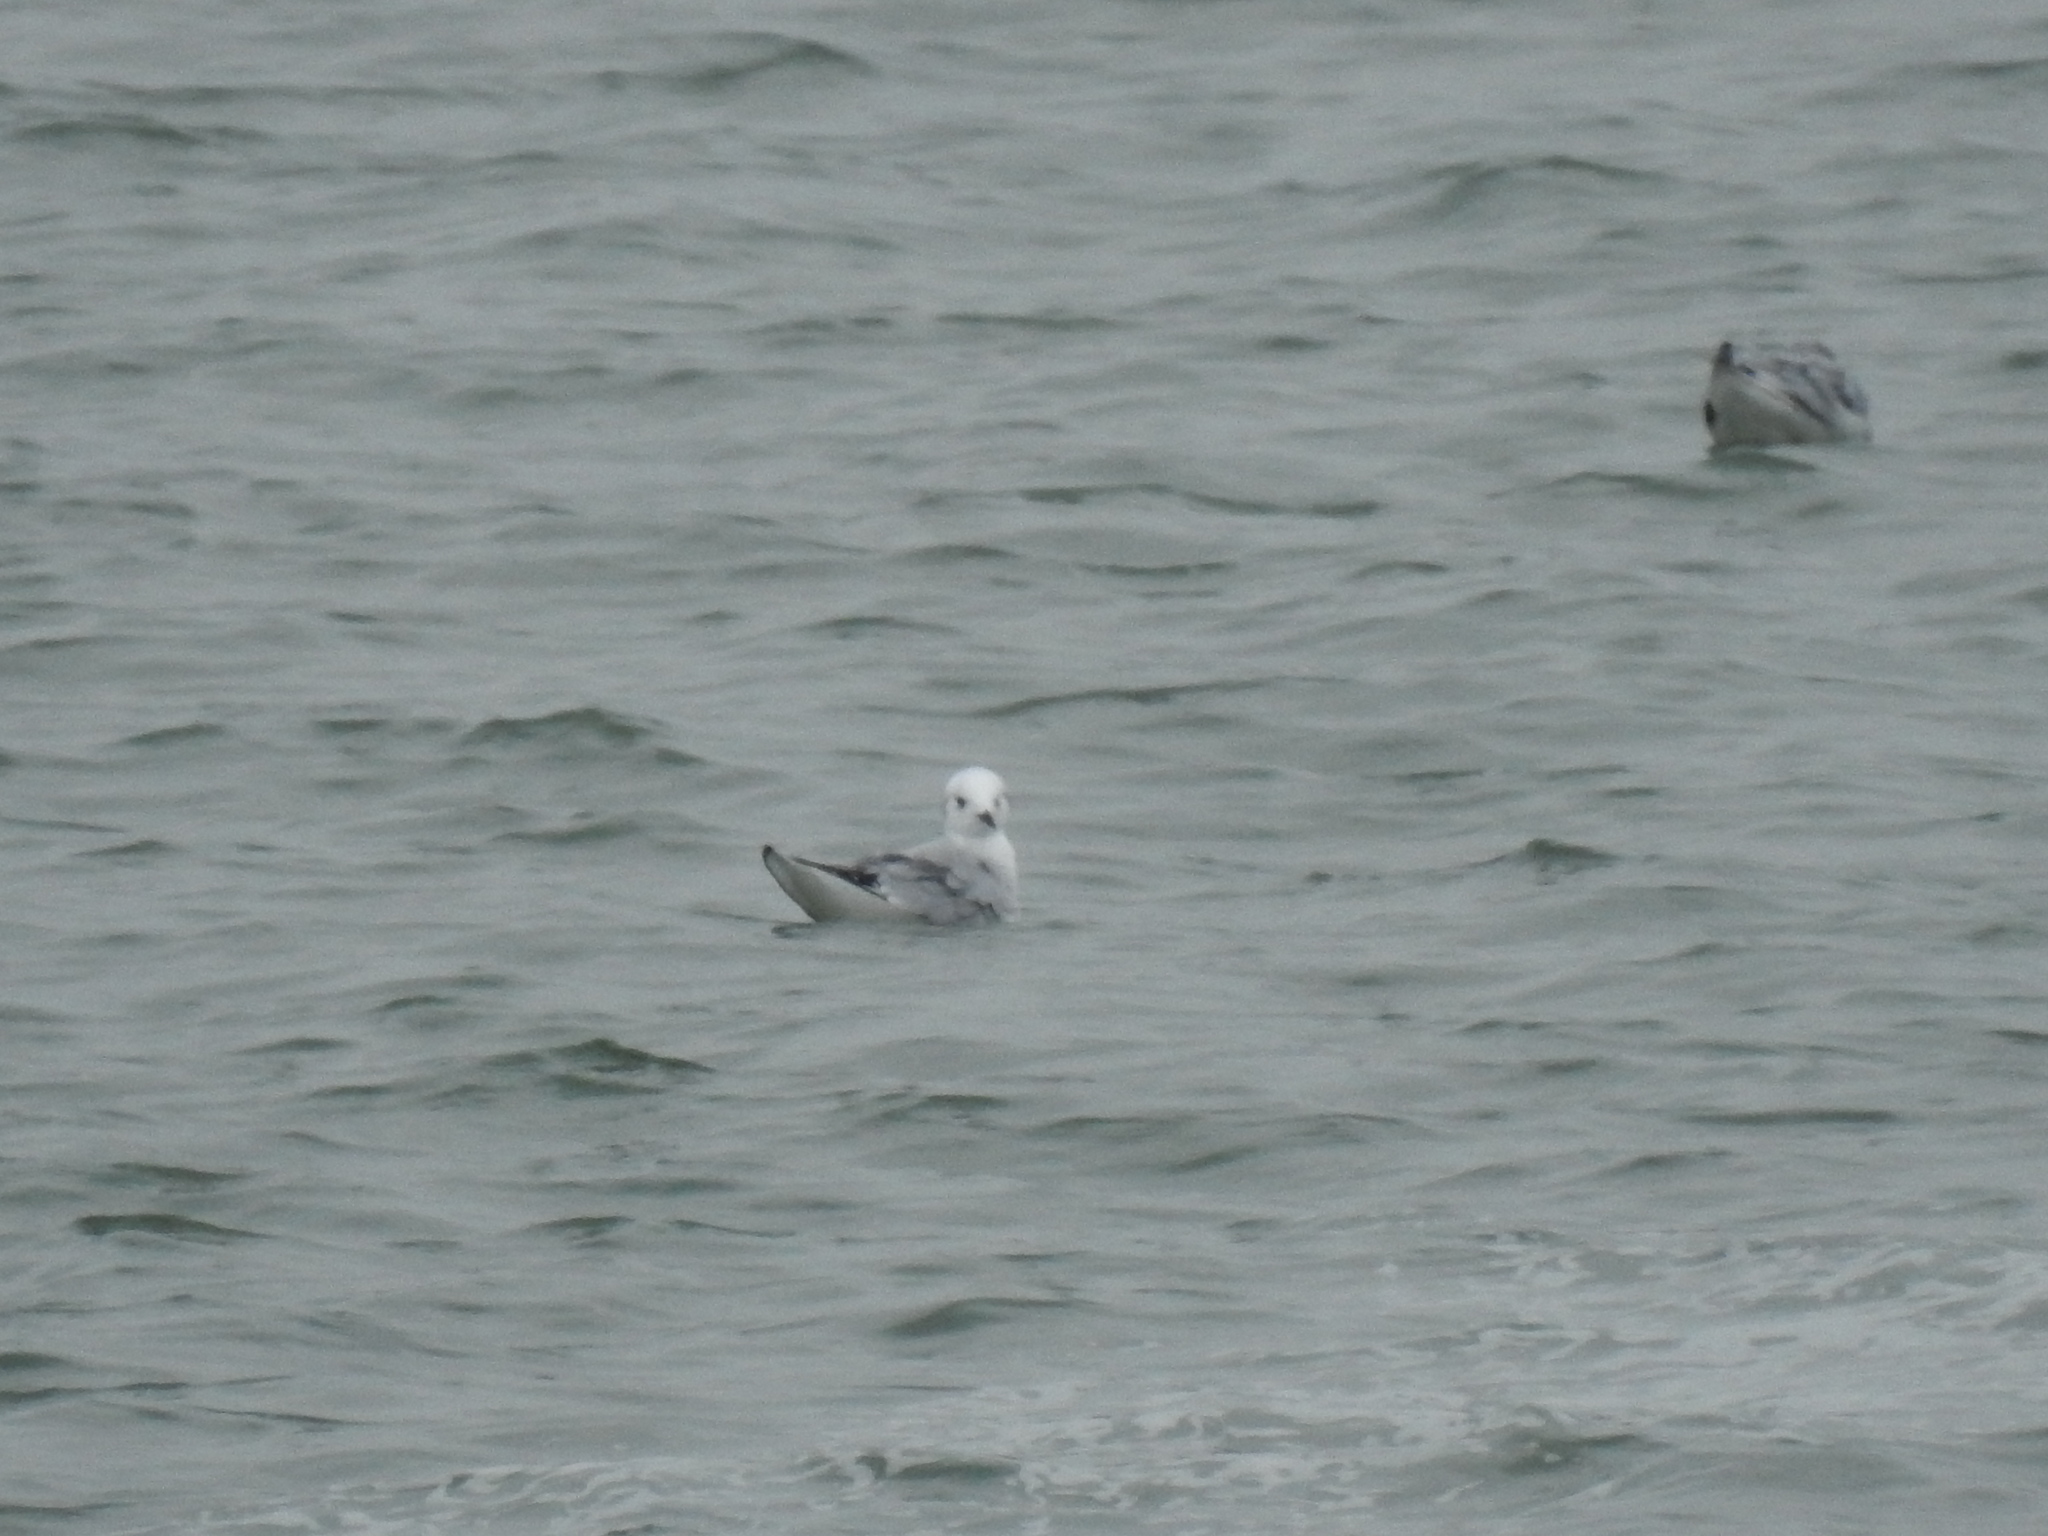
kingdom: Animalia
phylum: Chordata
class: Aves
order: Charadriiformes
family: Laridae
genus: Chroicocephalus
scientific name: Chroicocephalus philadelphia
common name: Bonaparte's gull
